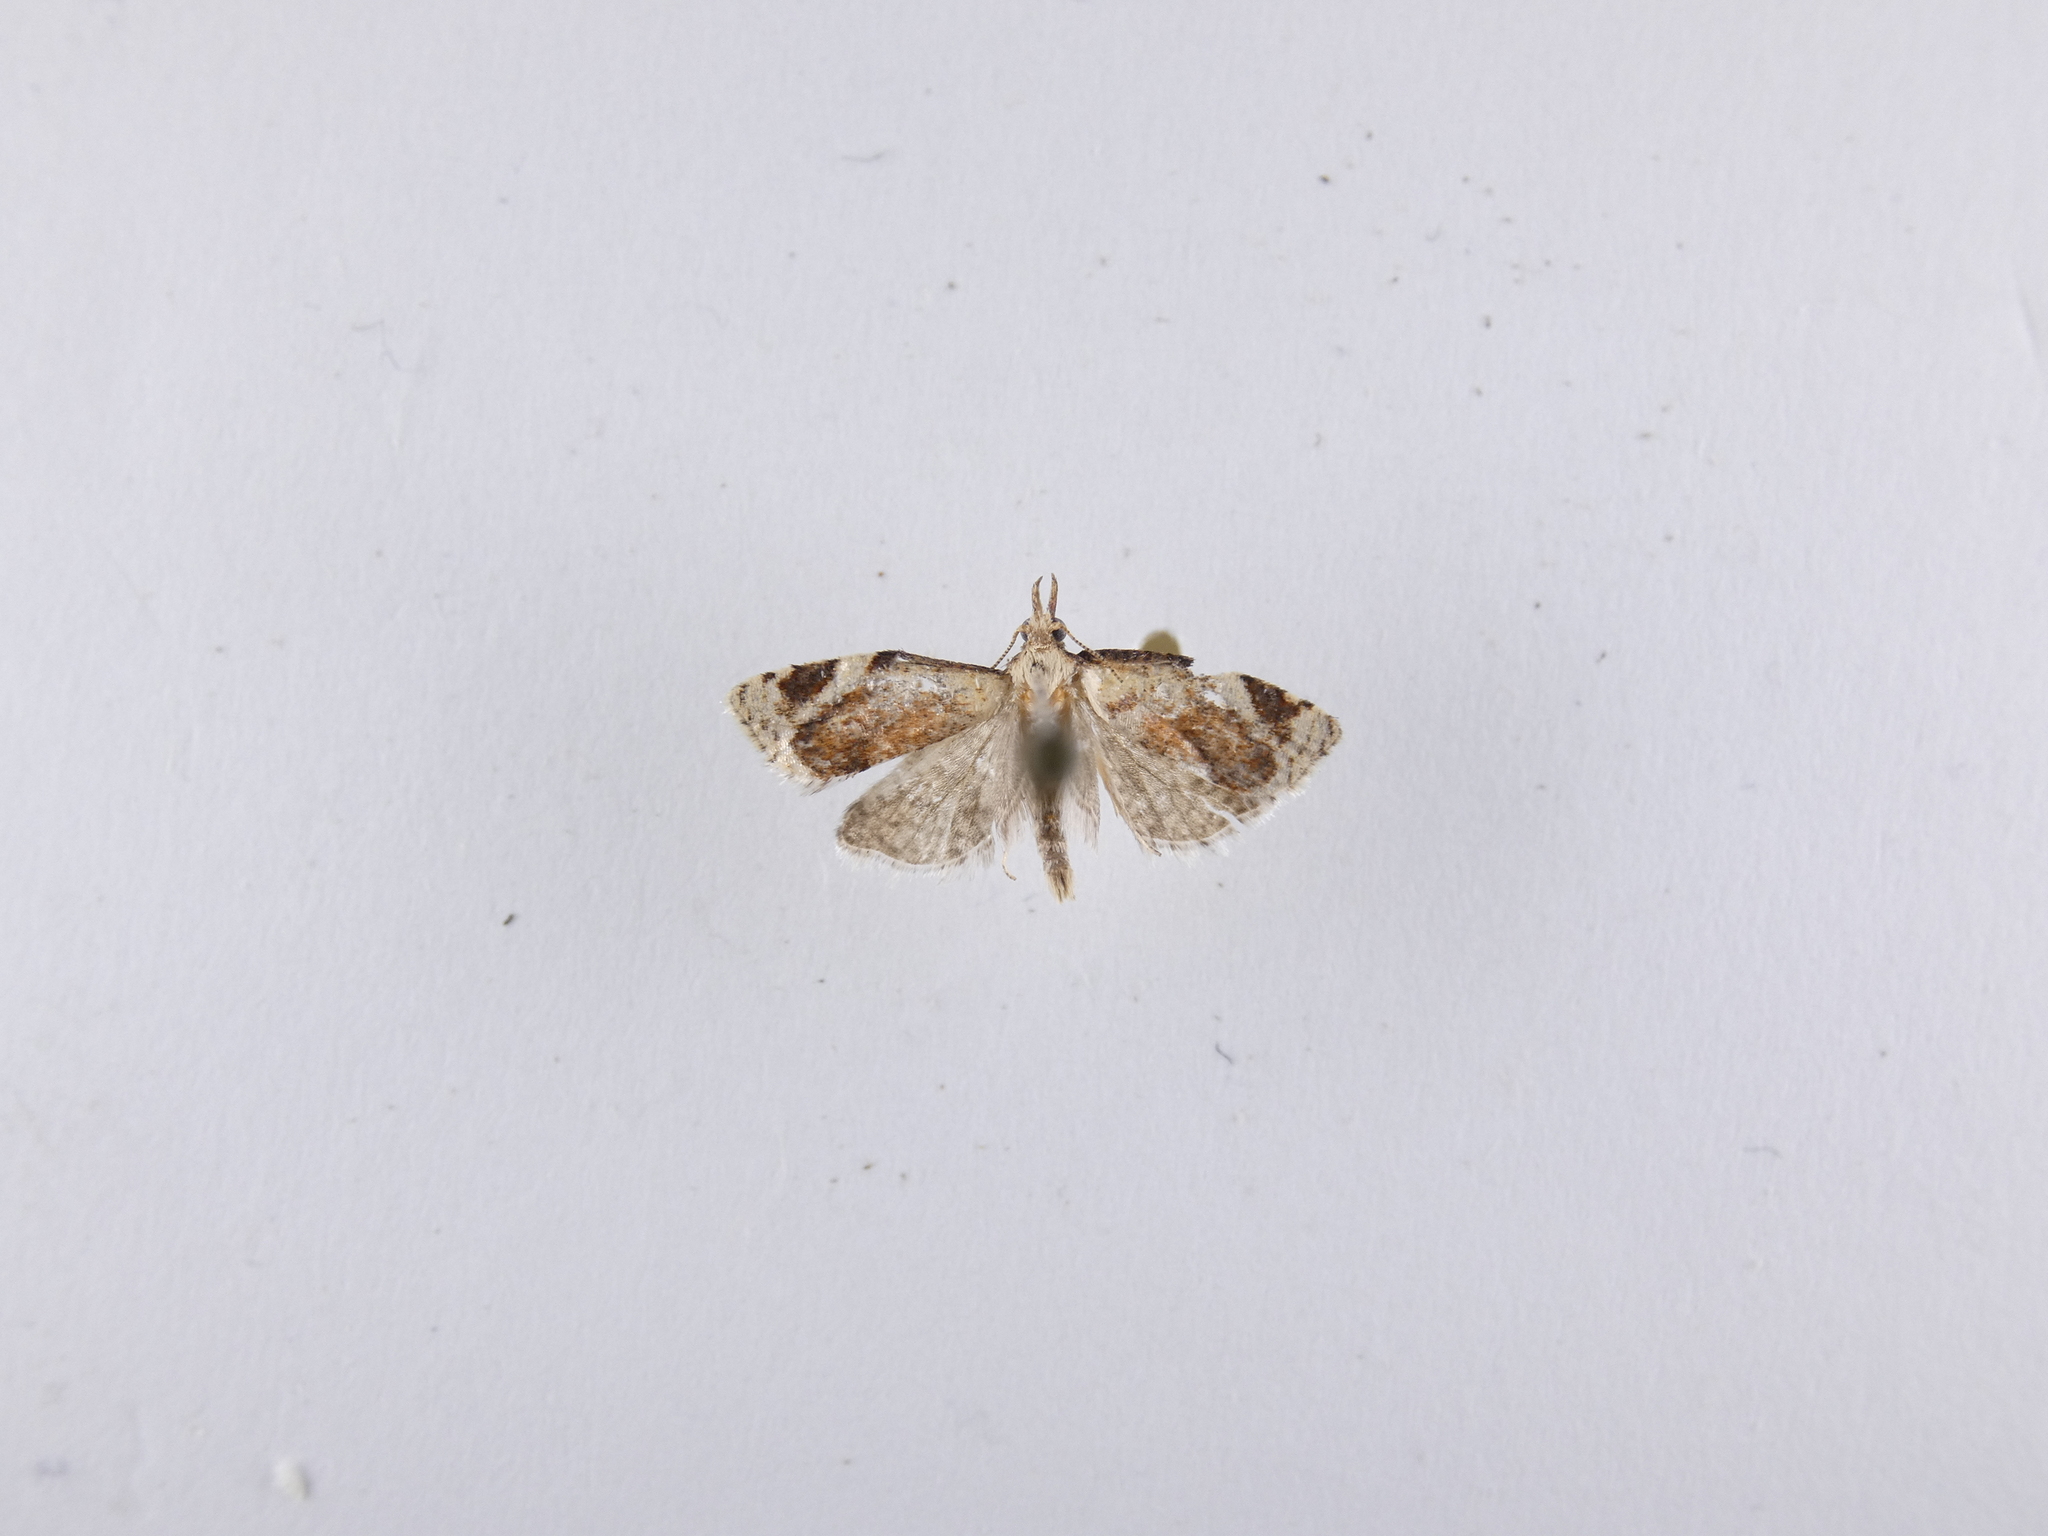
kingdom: Animalia
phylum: Arthropoda
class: Insecta
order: Lepidoptera
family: Tortricidae
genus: Catamacta
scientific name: Catamacta gavisana
